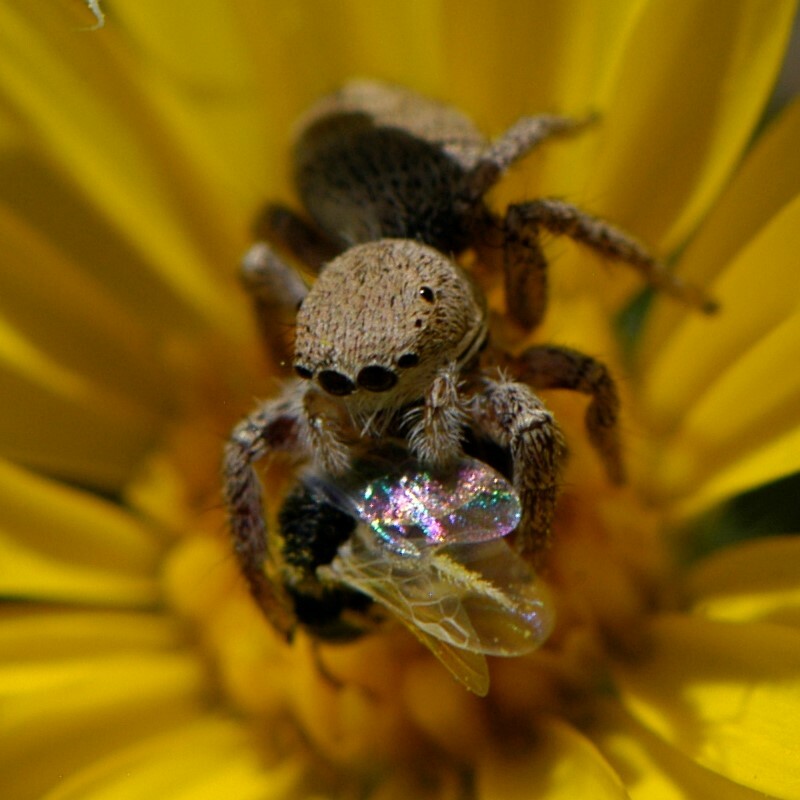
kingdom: Animalia
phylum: Arthropoda
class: Arachnida
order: Araneae
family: Salticidae
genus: Habronattus
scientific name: Habronattus
